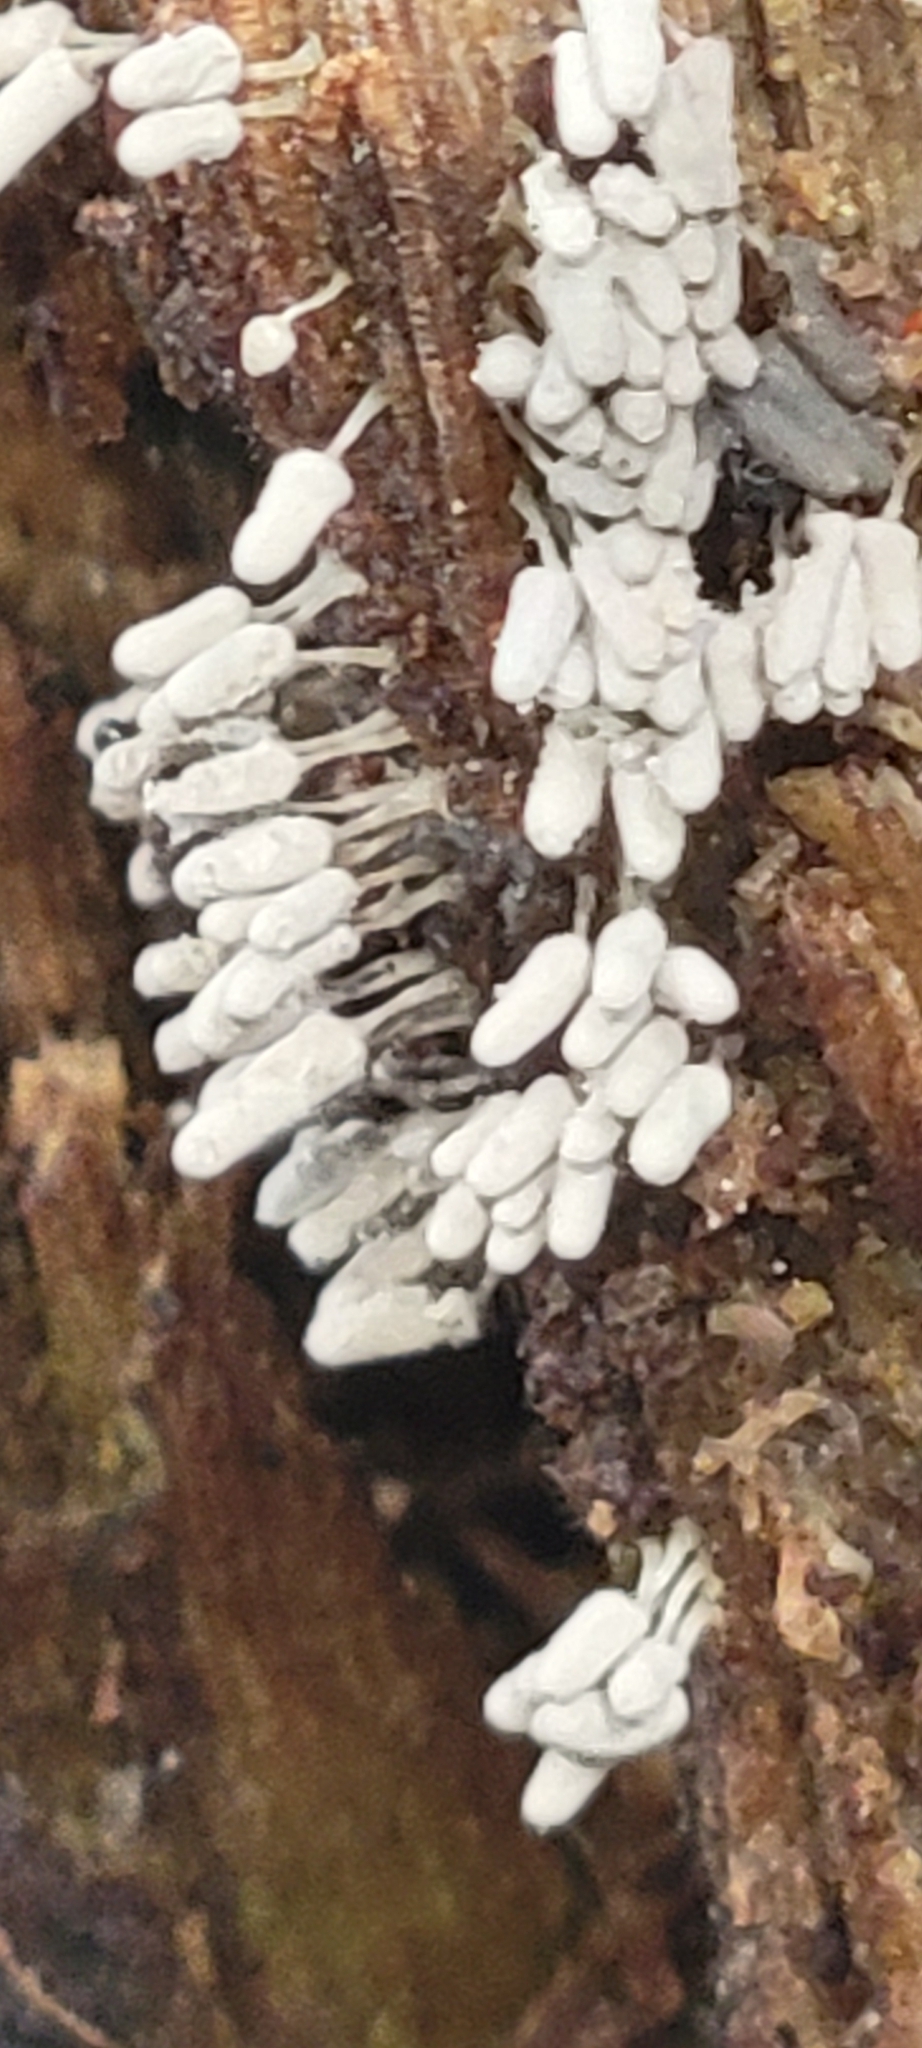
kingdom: Protozoa
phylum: Mycetozoa
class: Myxomycetes
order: Trichiales
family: Arcyriaceae
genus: Arcyria
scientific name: Arcyria cinerea
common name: White carnival candy slime mold
